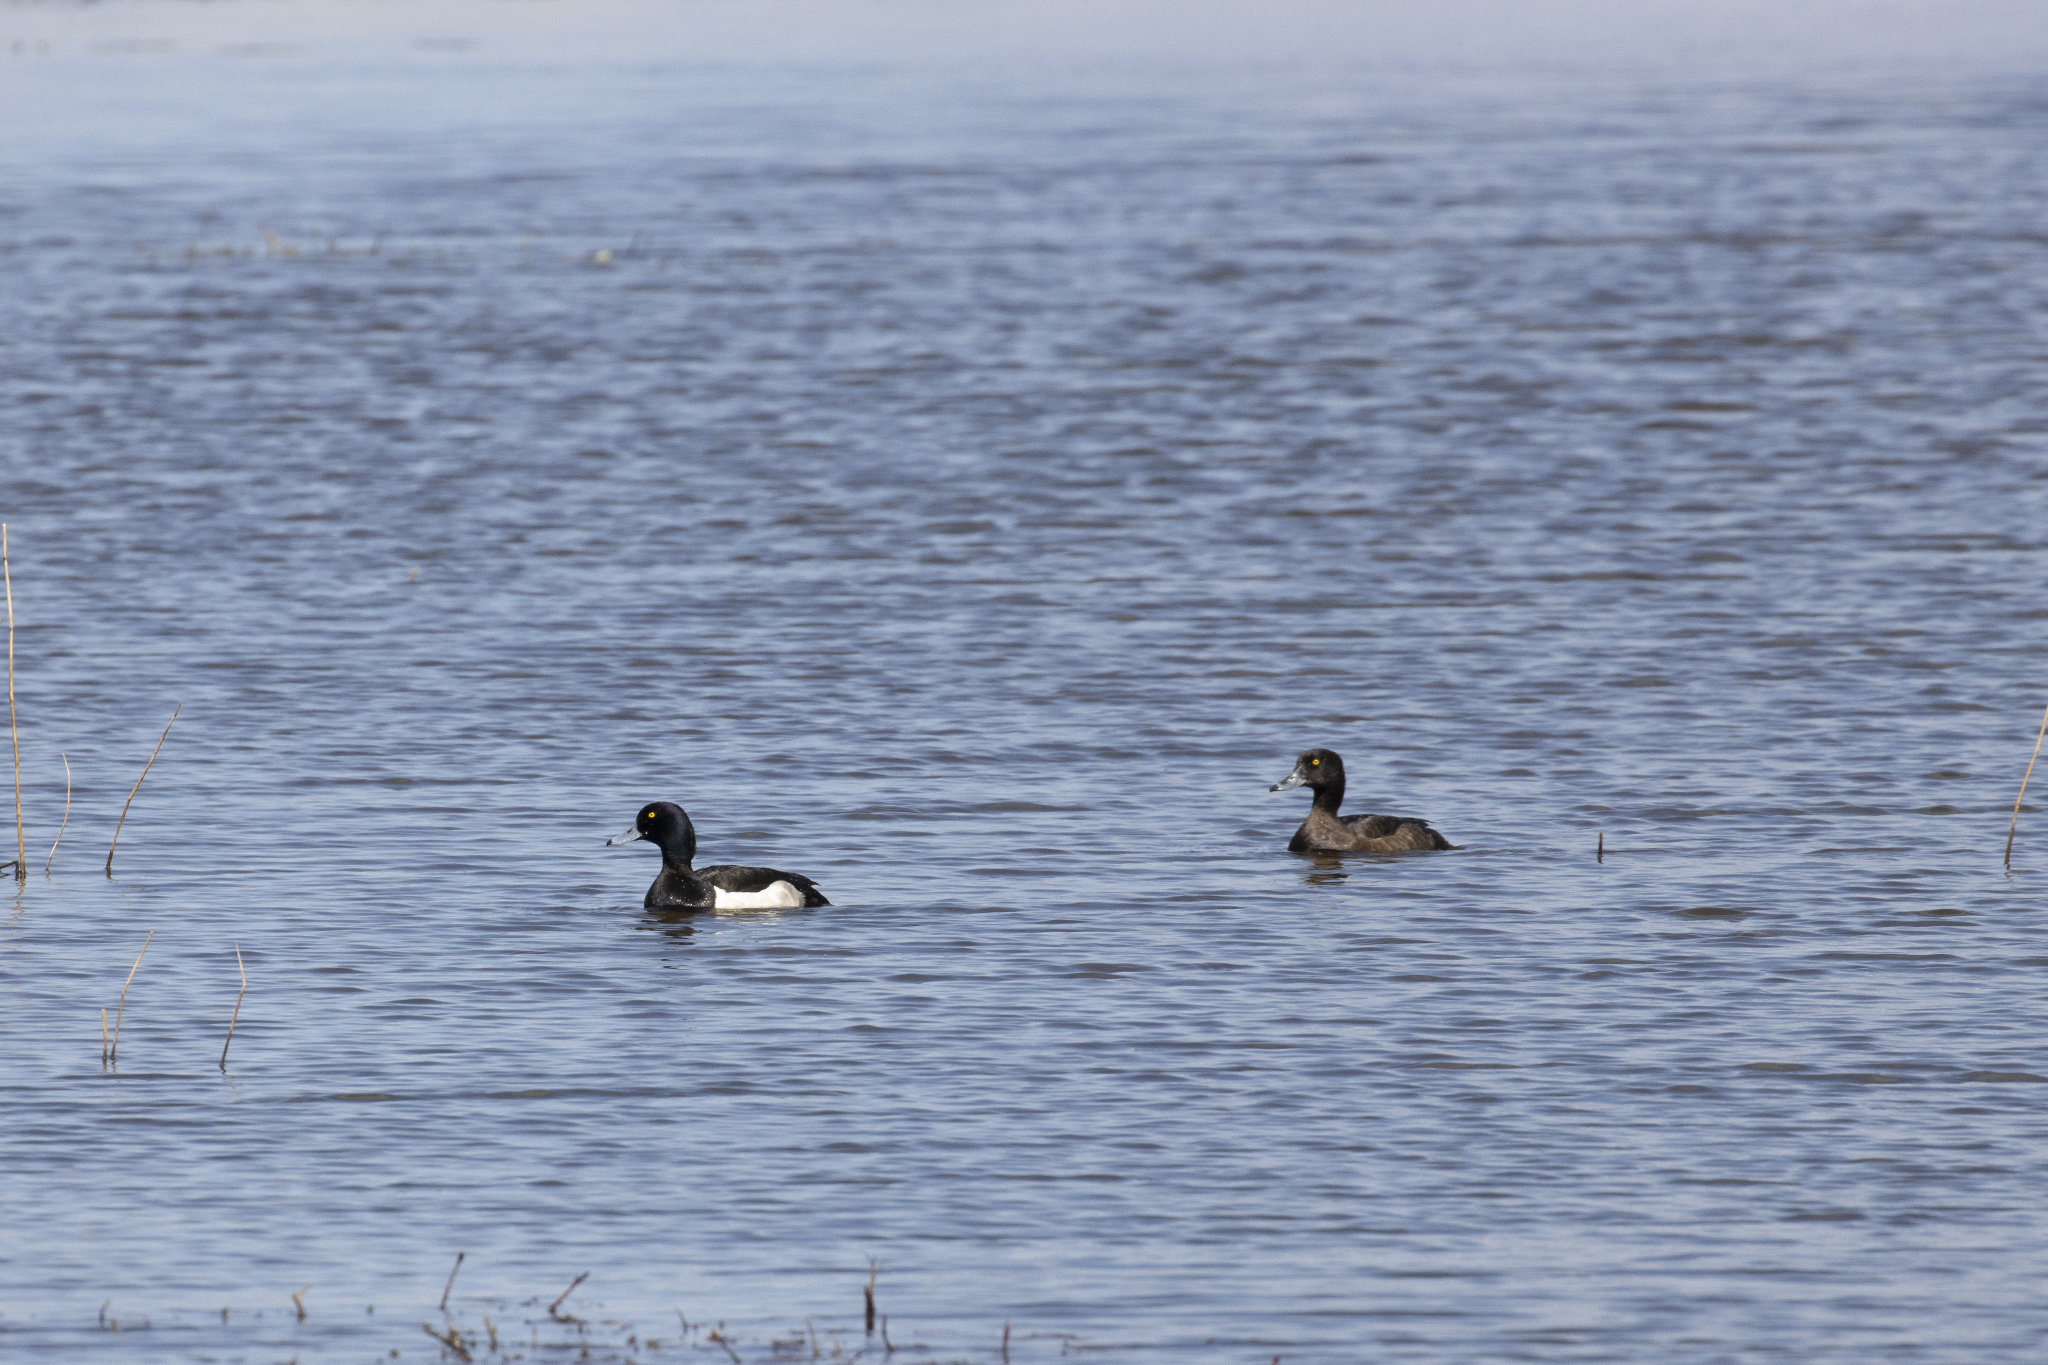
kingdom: Animalia
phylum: Chordata
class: Aves
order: Anseriformes
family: Anatidae
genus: Aythya
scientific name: Aythya fuligula
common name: Tufted duck
